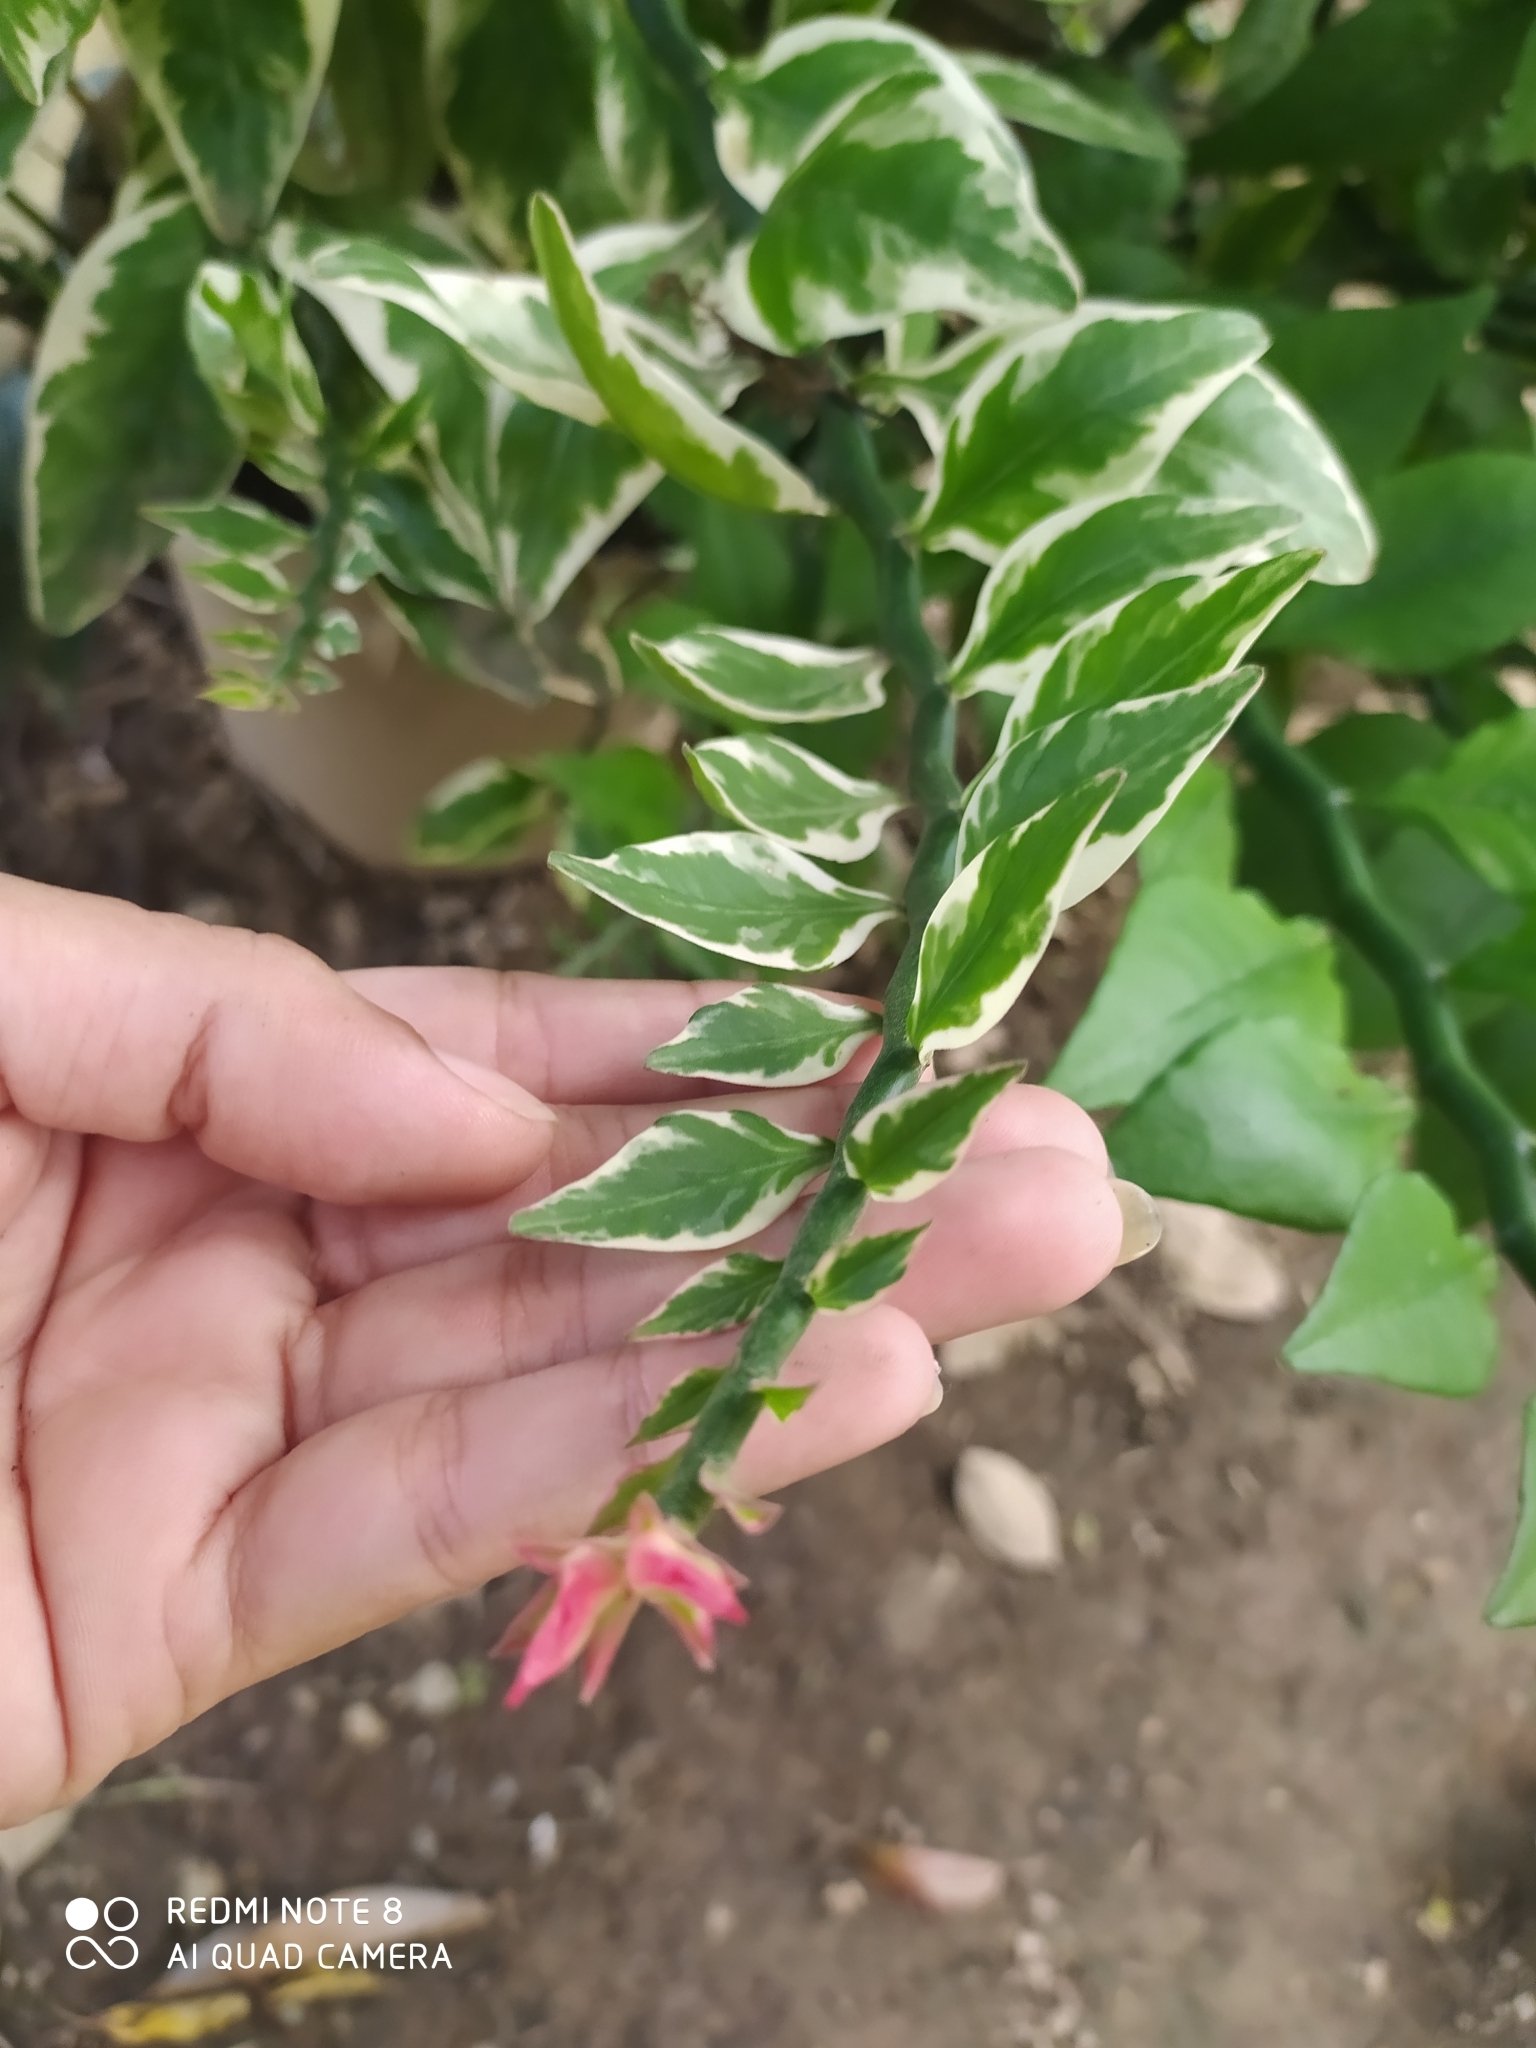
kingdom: Plantae
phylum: Tracheophyta
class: Magnoliopsida
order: Malpighiales
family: Euphorbiaceae
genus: Euphorbia
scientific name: Euphorbia tithymaloides
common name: Slipperplant
